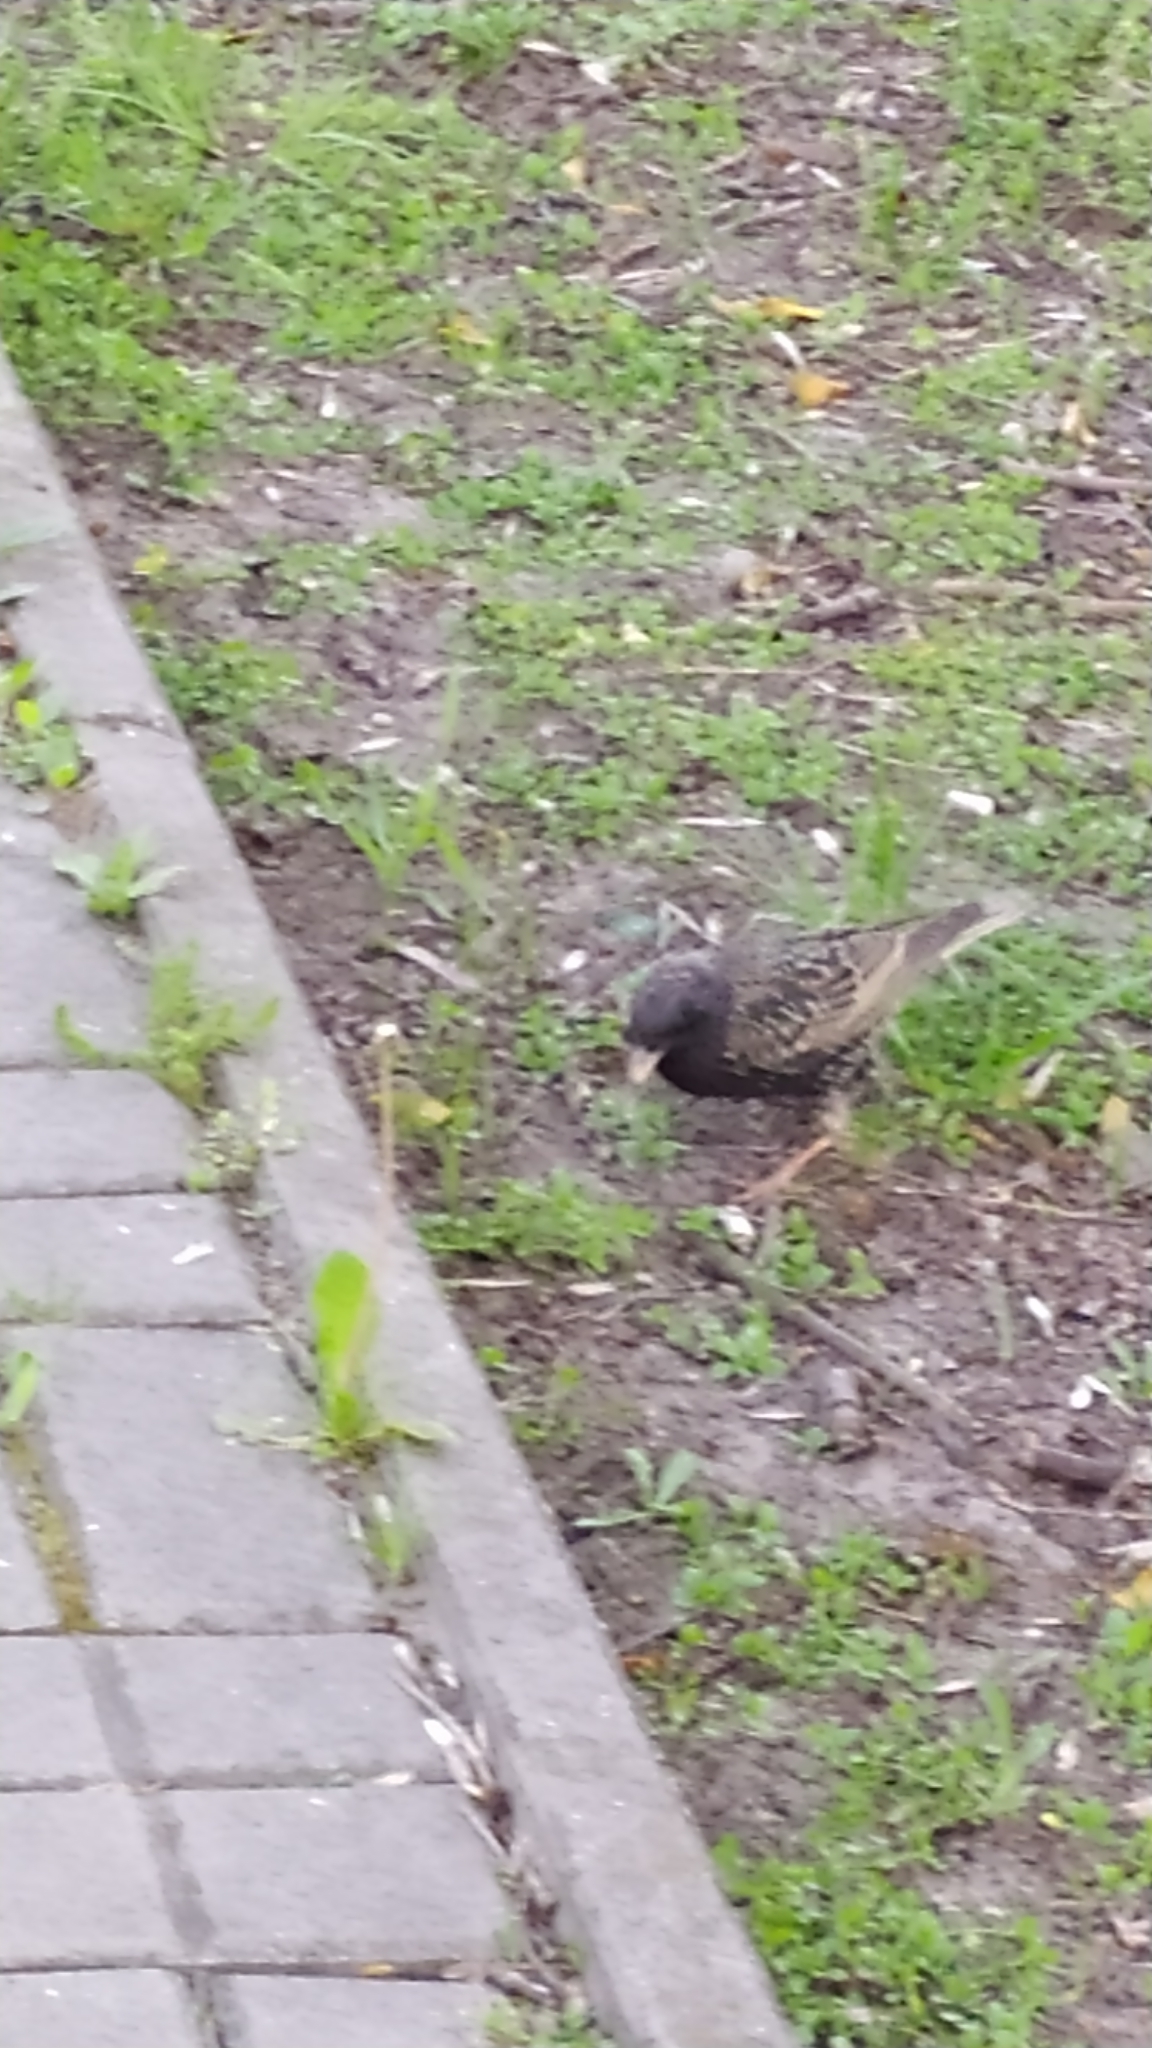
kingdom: Animalia
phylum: Chordata
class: Aves
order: Passeriformes
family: Sturnidae
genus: Sturnus
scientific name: Sturnus vulgaris
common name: Common starling
